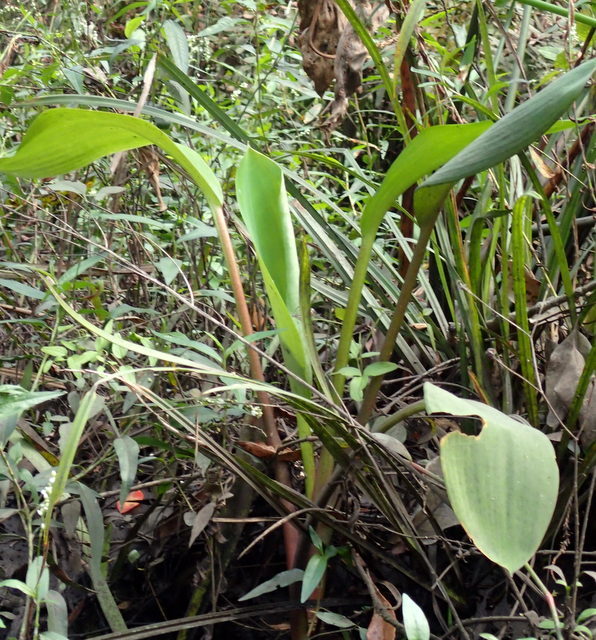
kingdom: Plantae
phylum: Tracheophyta
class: Liliopsida
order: Alismatales
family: Araceae
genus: Orontium
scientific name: Orontium aquaticum
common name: Golden-club
